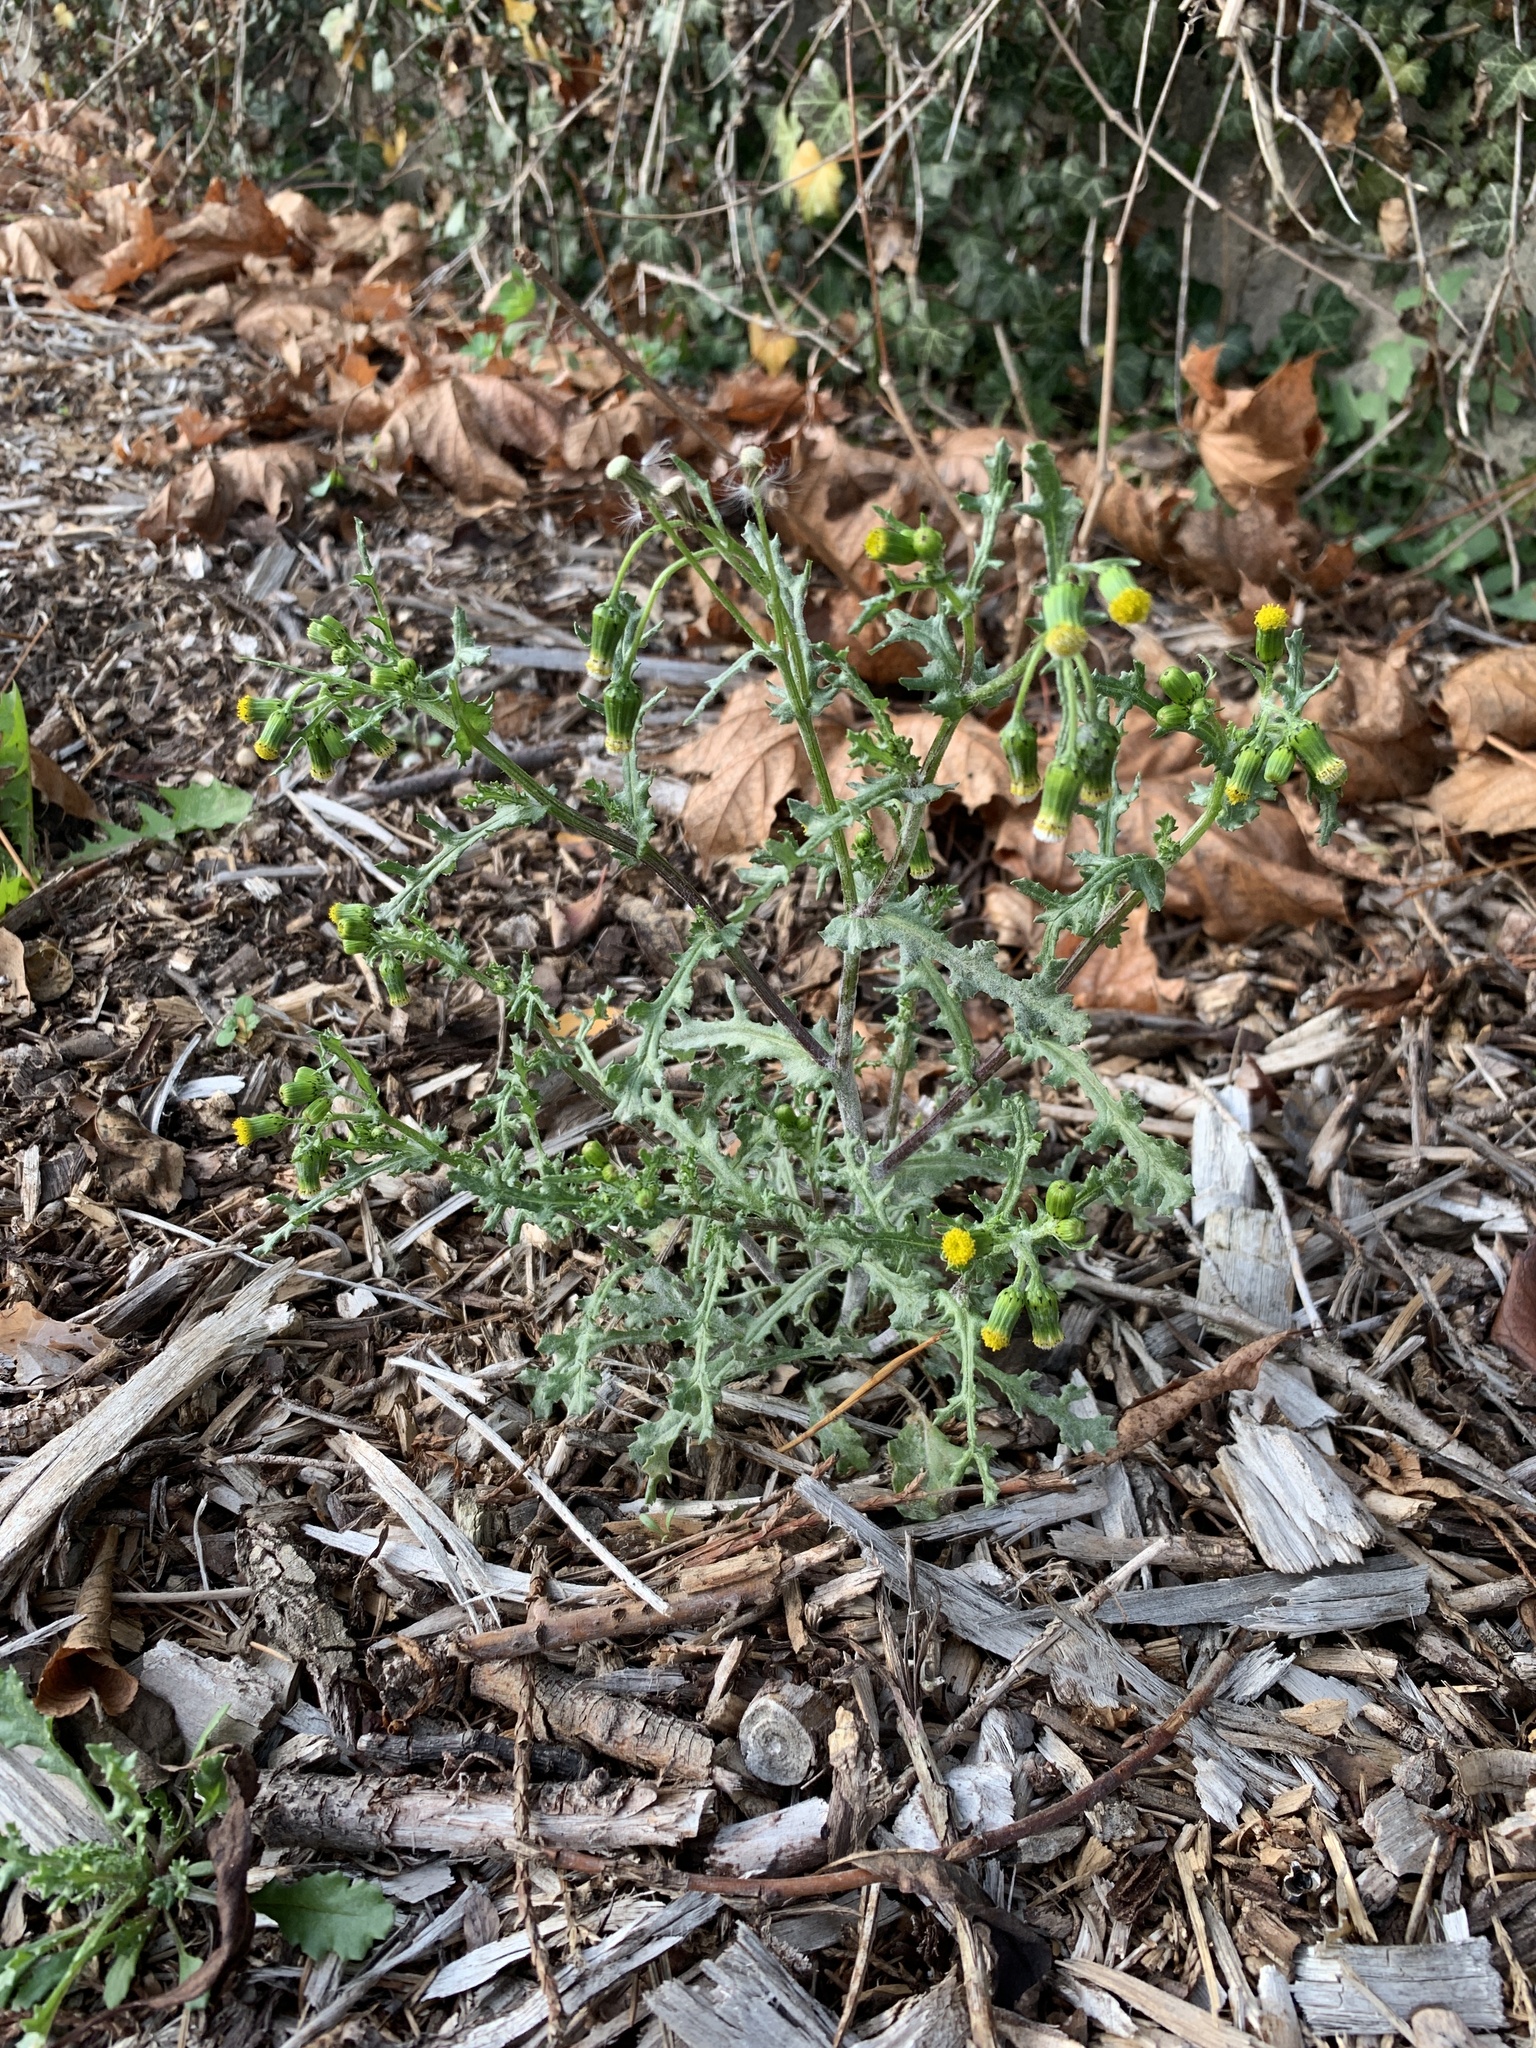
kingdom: Plantae
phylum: Tracheophyta
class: Magnoliopsida
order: Asterales
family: Asteraceae
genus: Senecio
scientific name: Senecio vulgaris
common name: Old-man-in-the-spring
